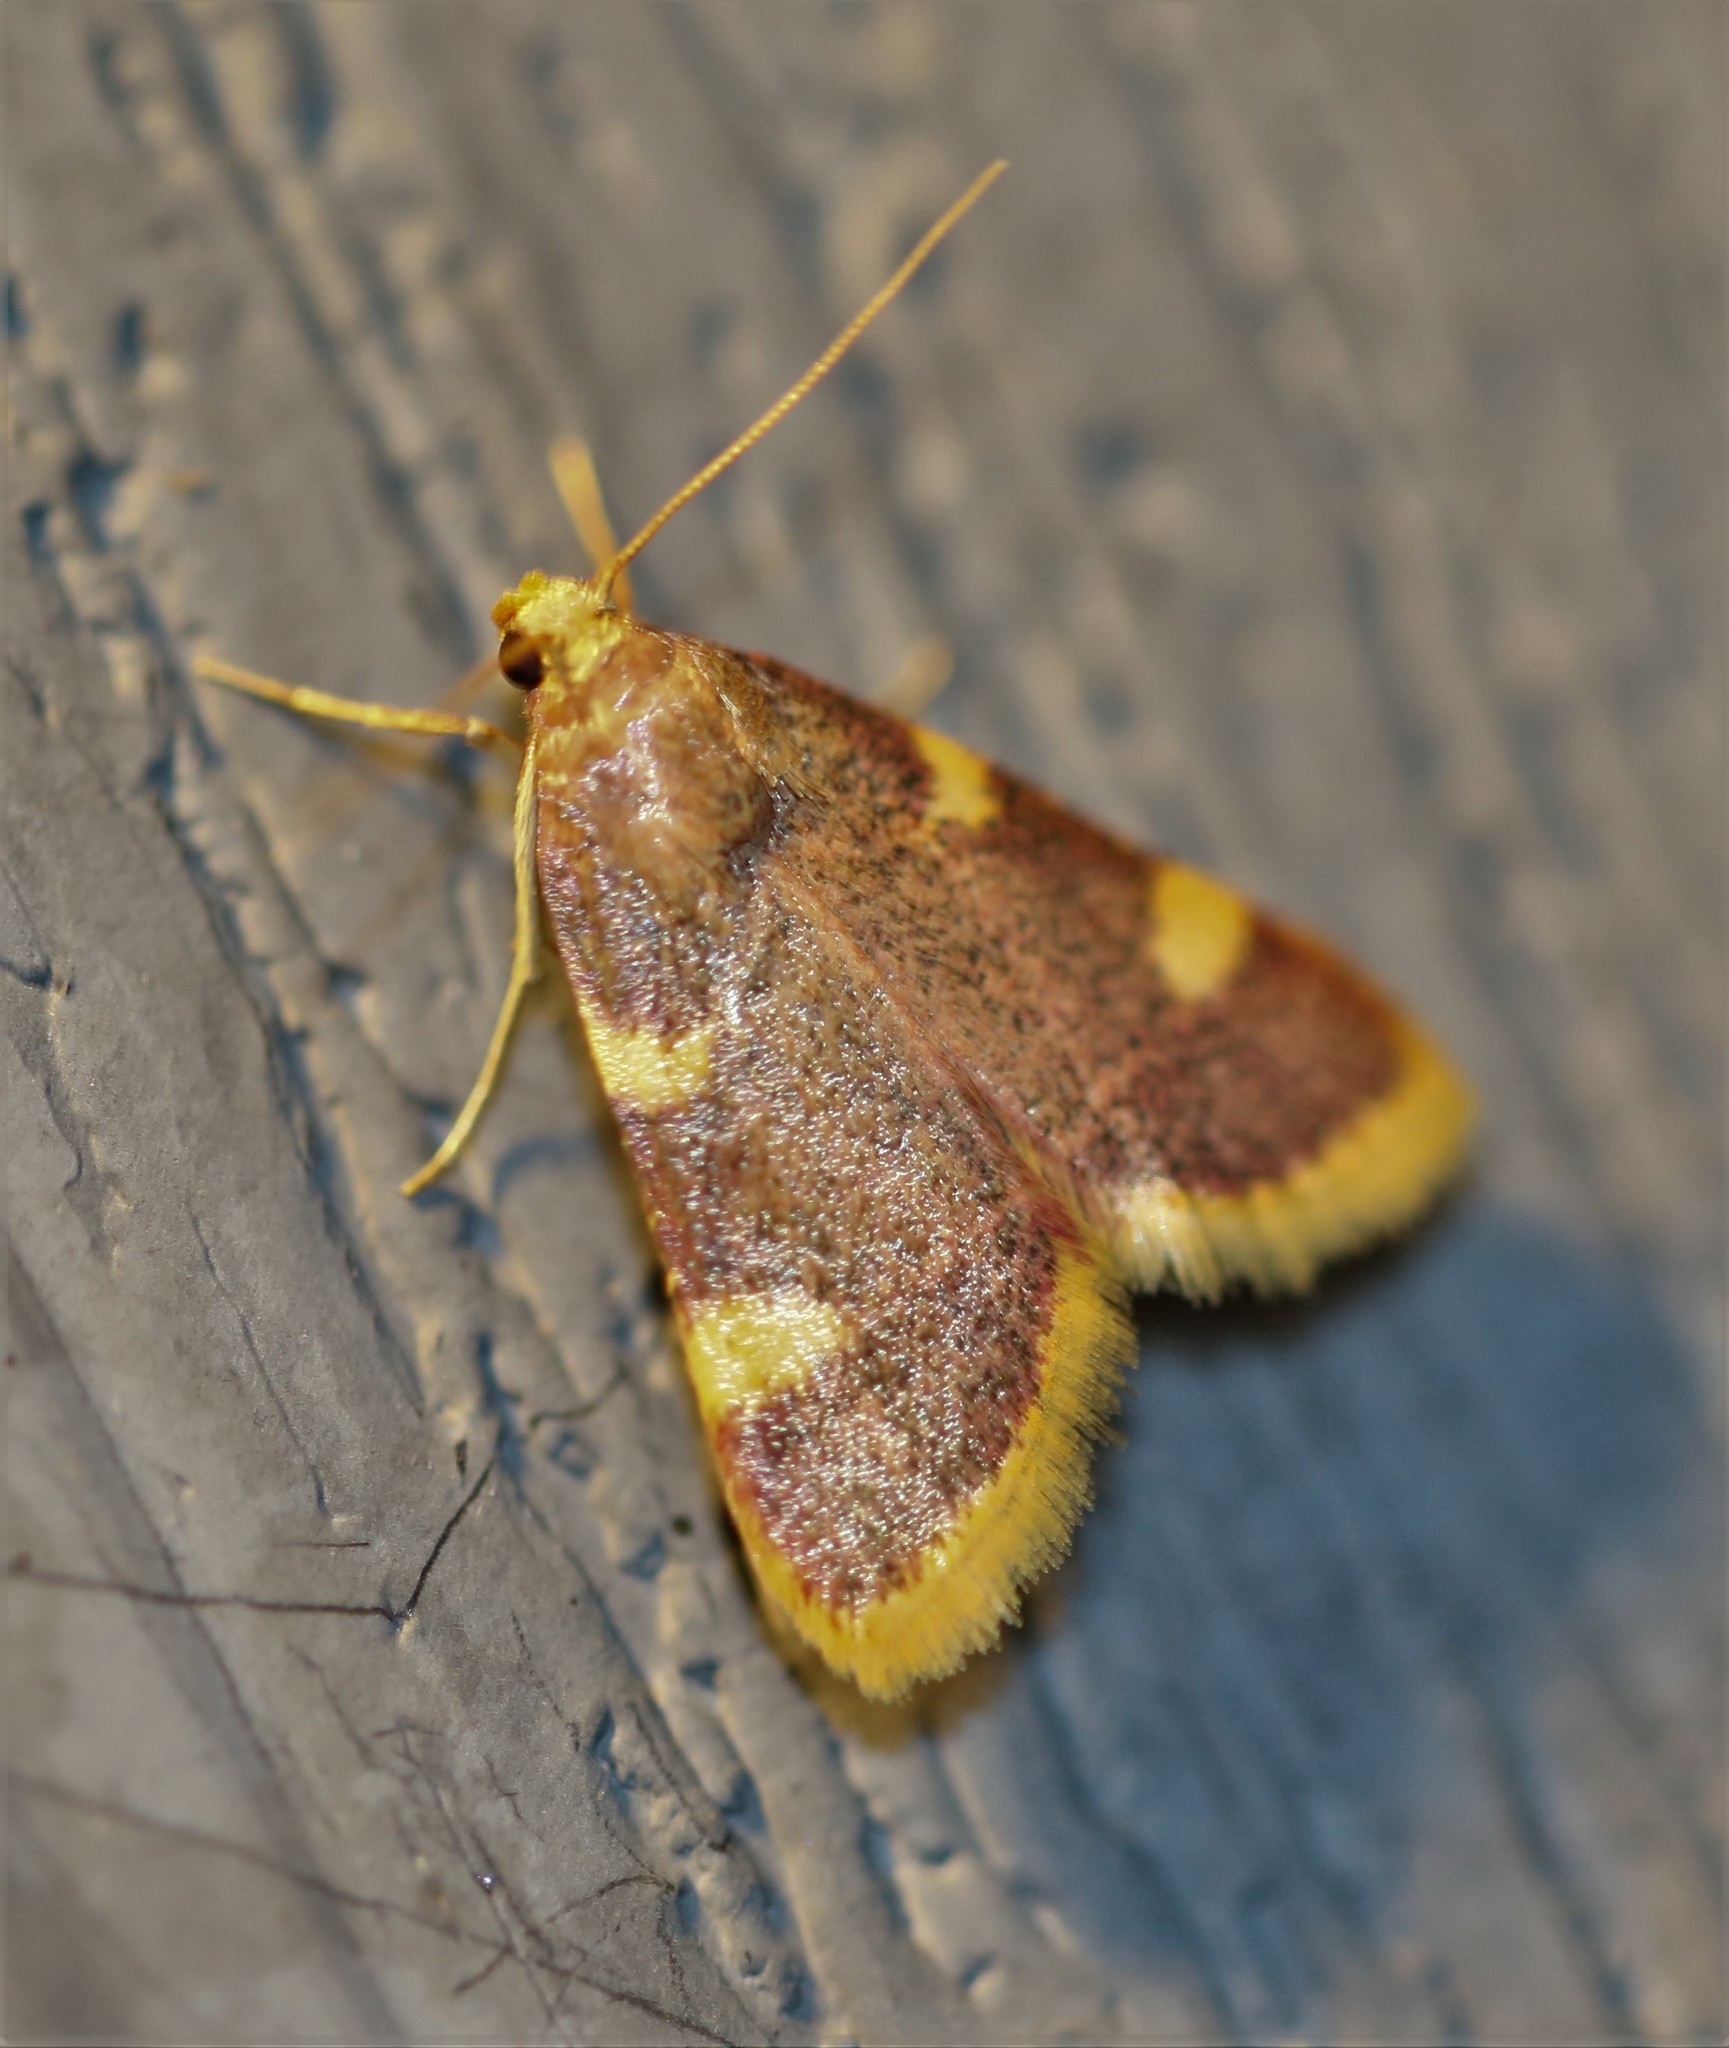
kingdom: Animalia
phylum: Arthropoda
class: Insecta
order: Lepidoptera
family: Pyralidae
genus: Hypsopygia
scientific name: Hypsopygia costalis
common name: Gold triangle
